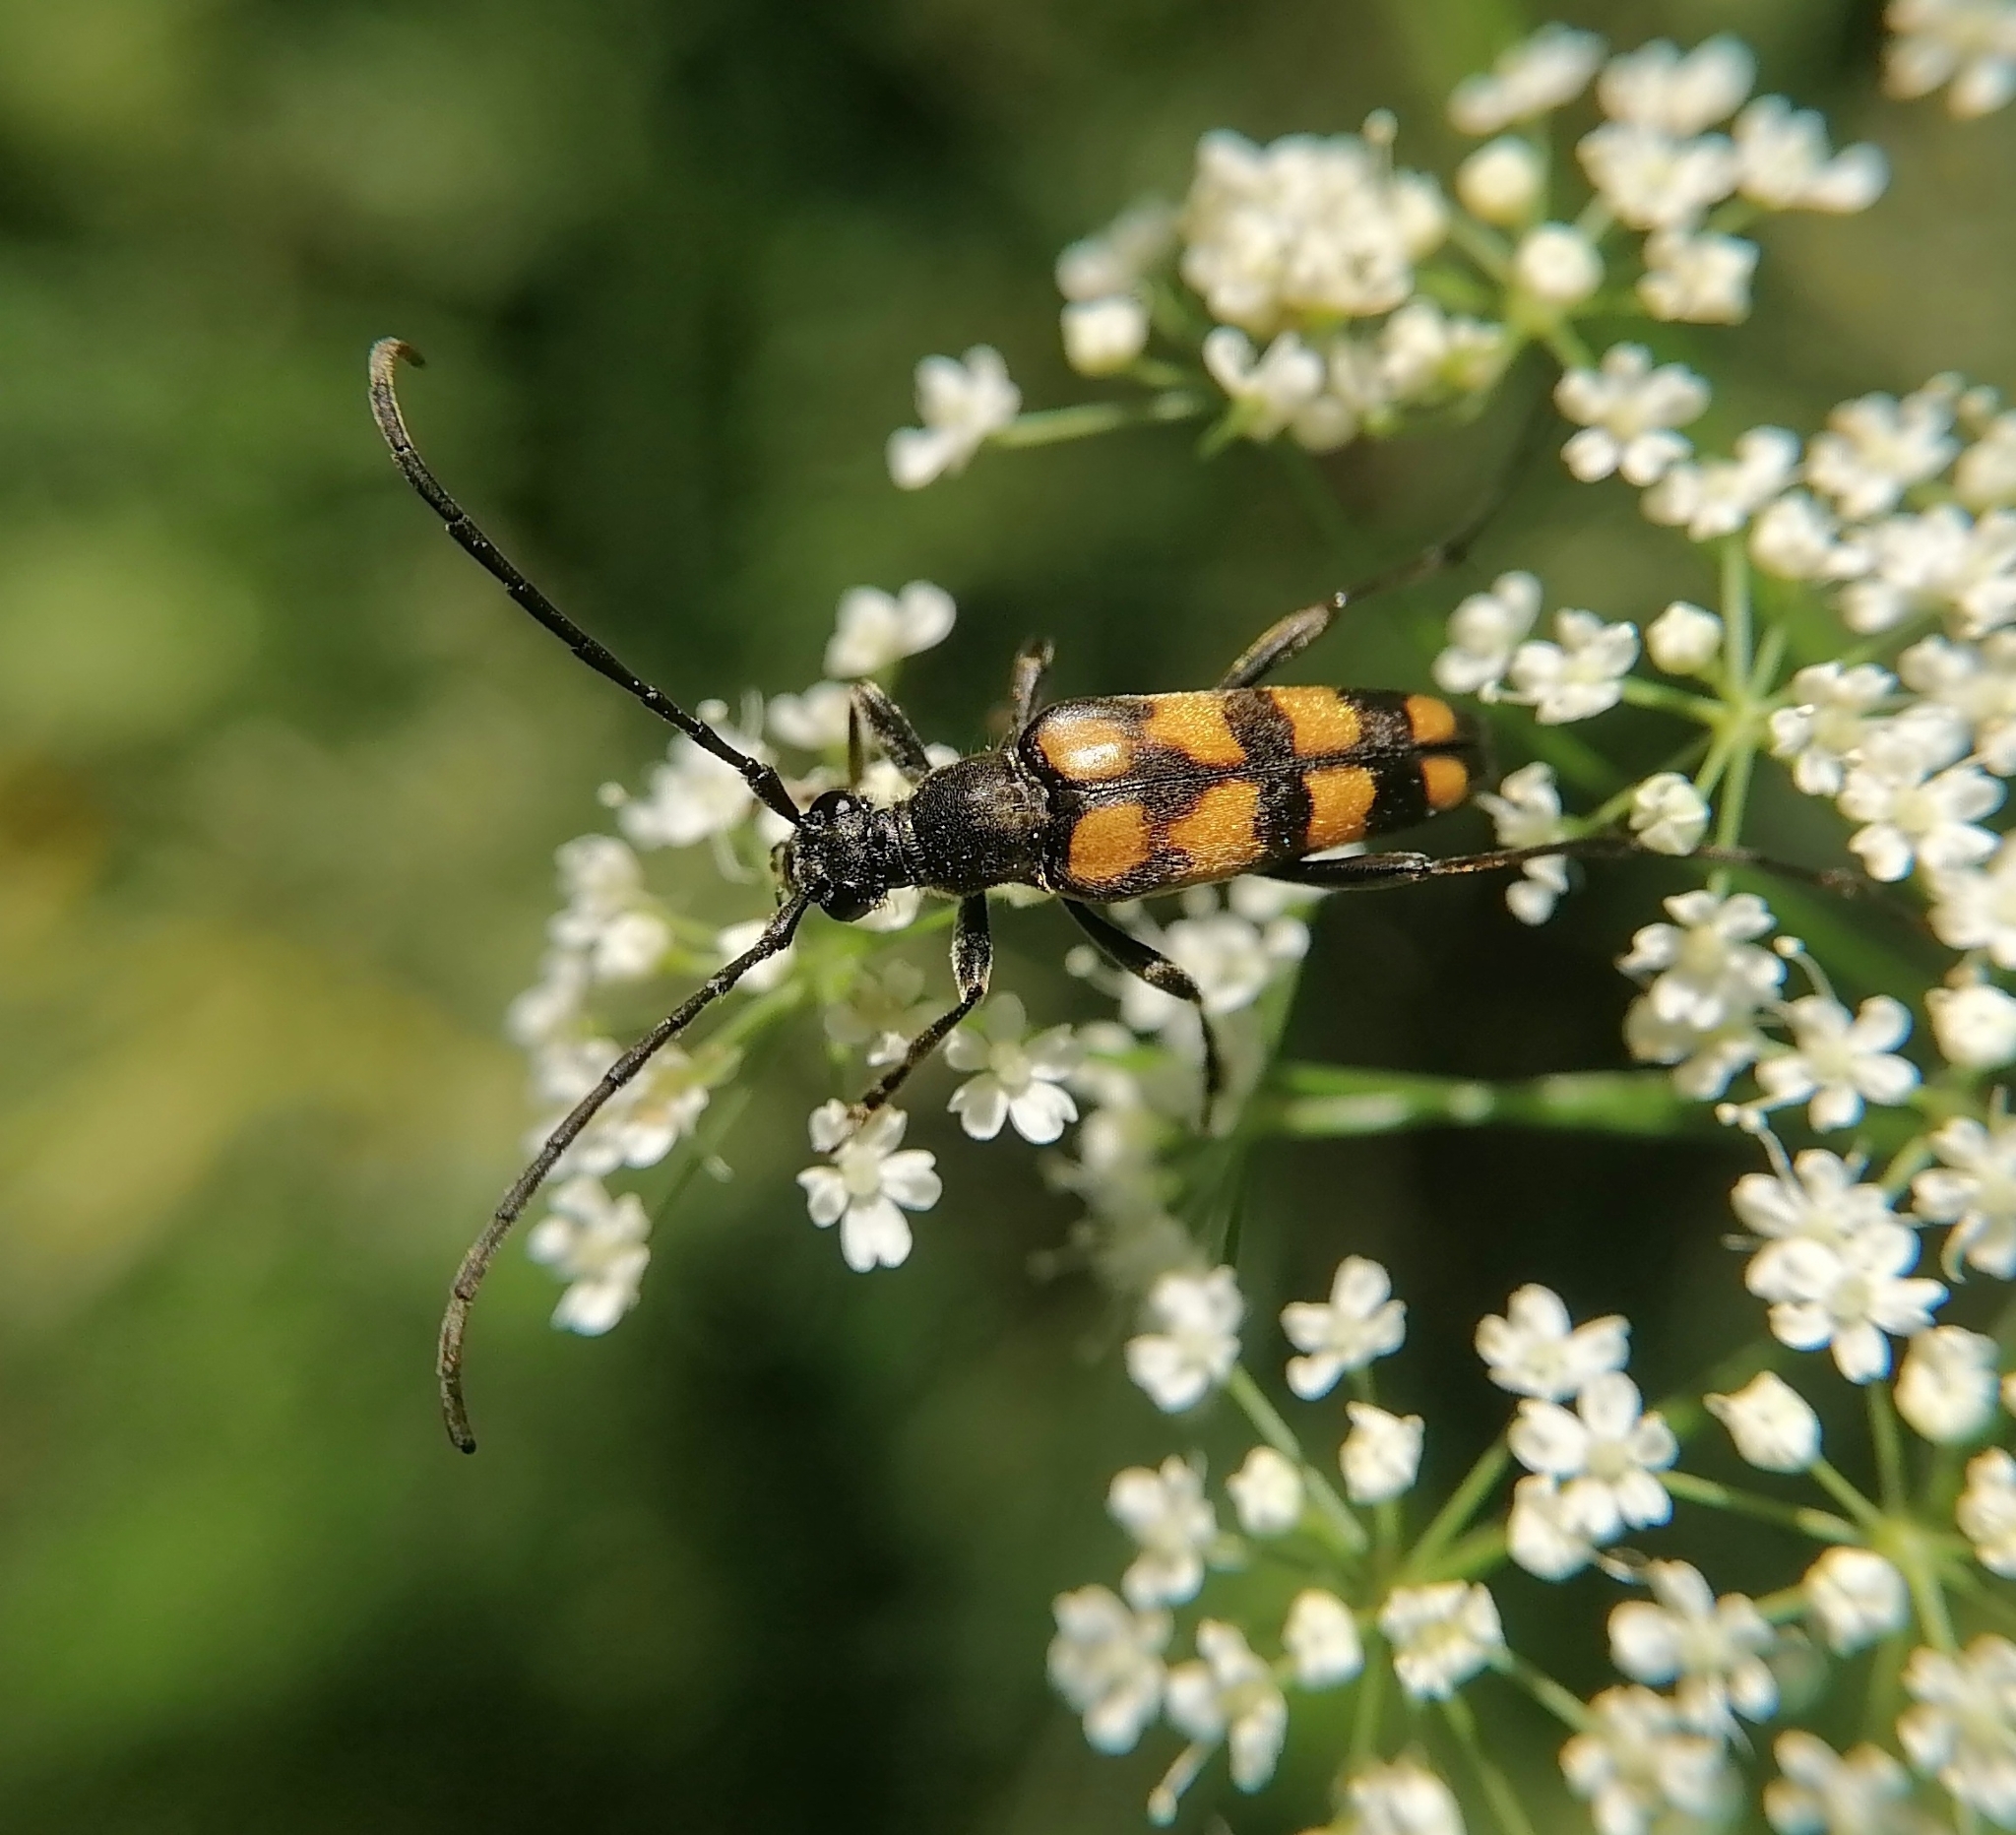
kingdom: Animalia
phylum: Arthropoda
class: Insecta
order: Coleoptera
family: Cerambycidae
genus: Leptura
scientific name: Leptura quadrifasciata
